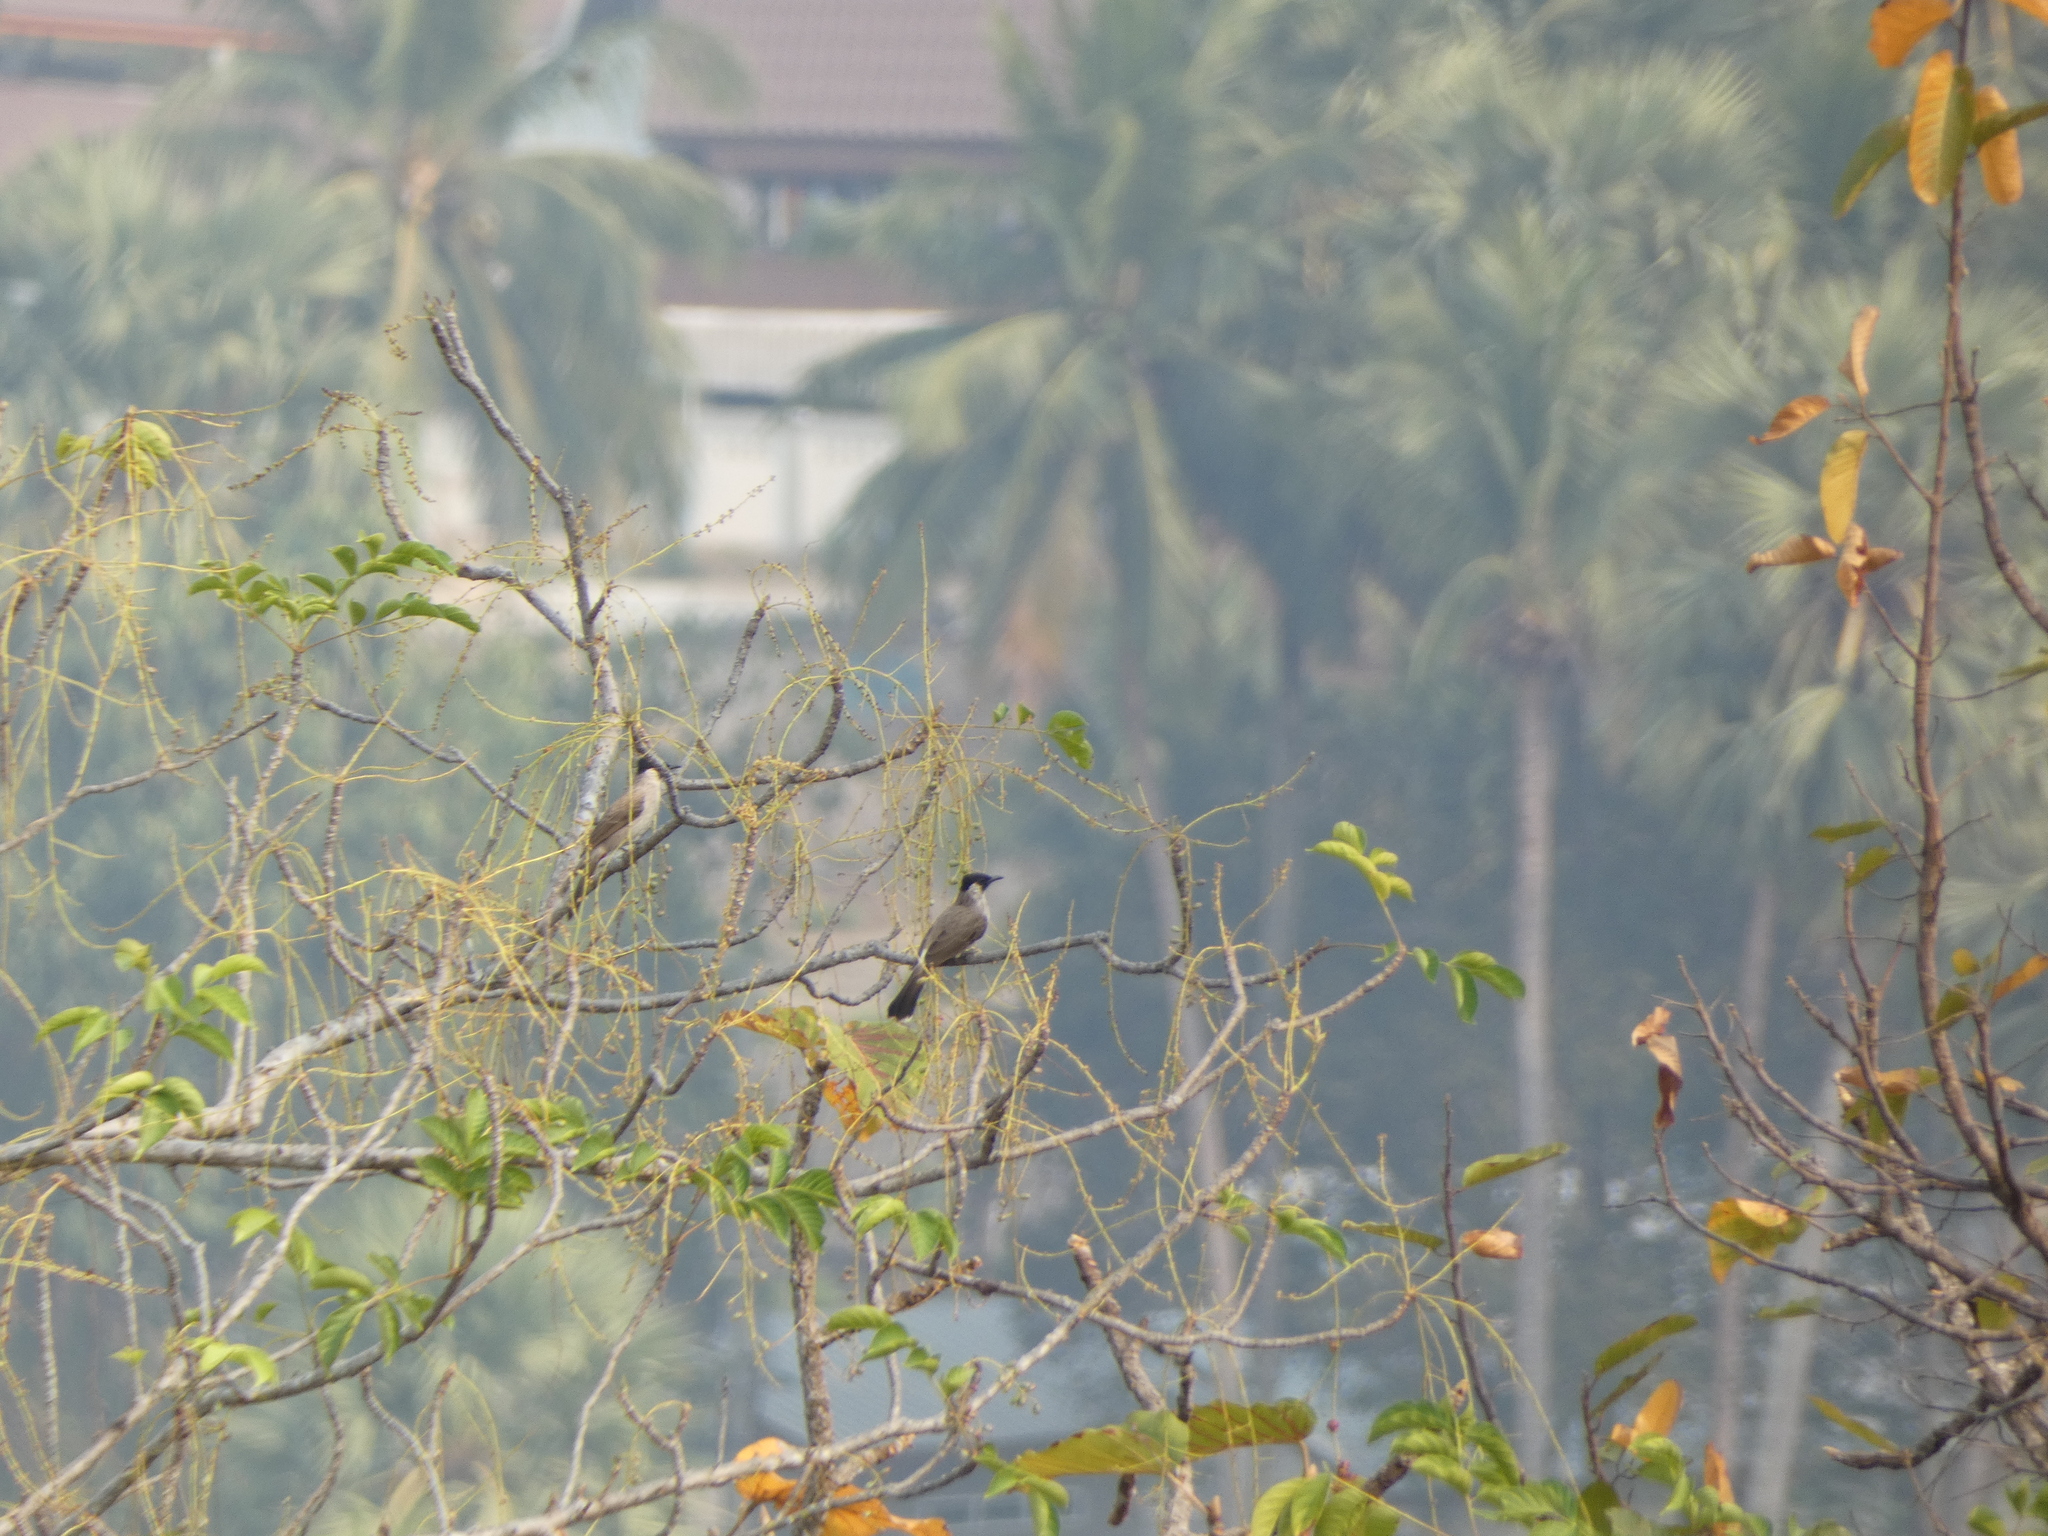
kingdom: Animalia
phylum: Chordata
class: Aves
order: Passeriformes
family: Pycnonotidae
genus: Pycnonotus
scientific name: Pycnonotus aurigaster
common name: Sooty-headed bulbul
